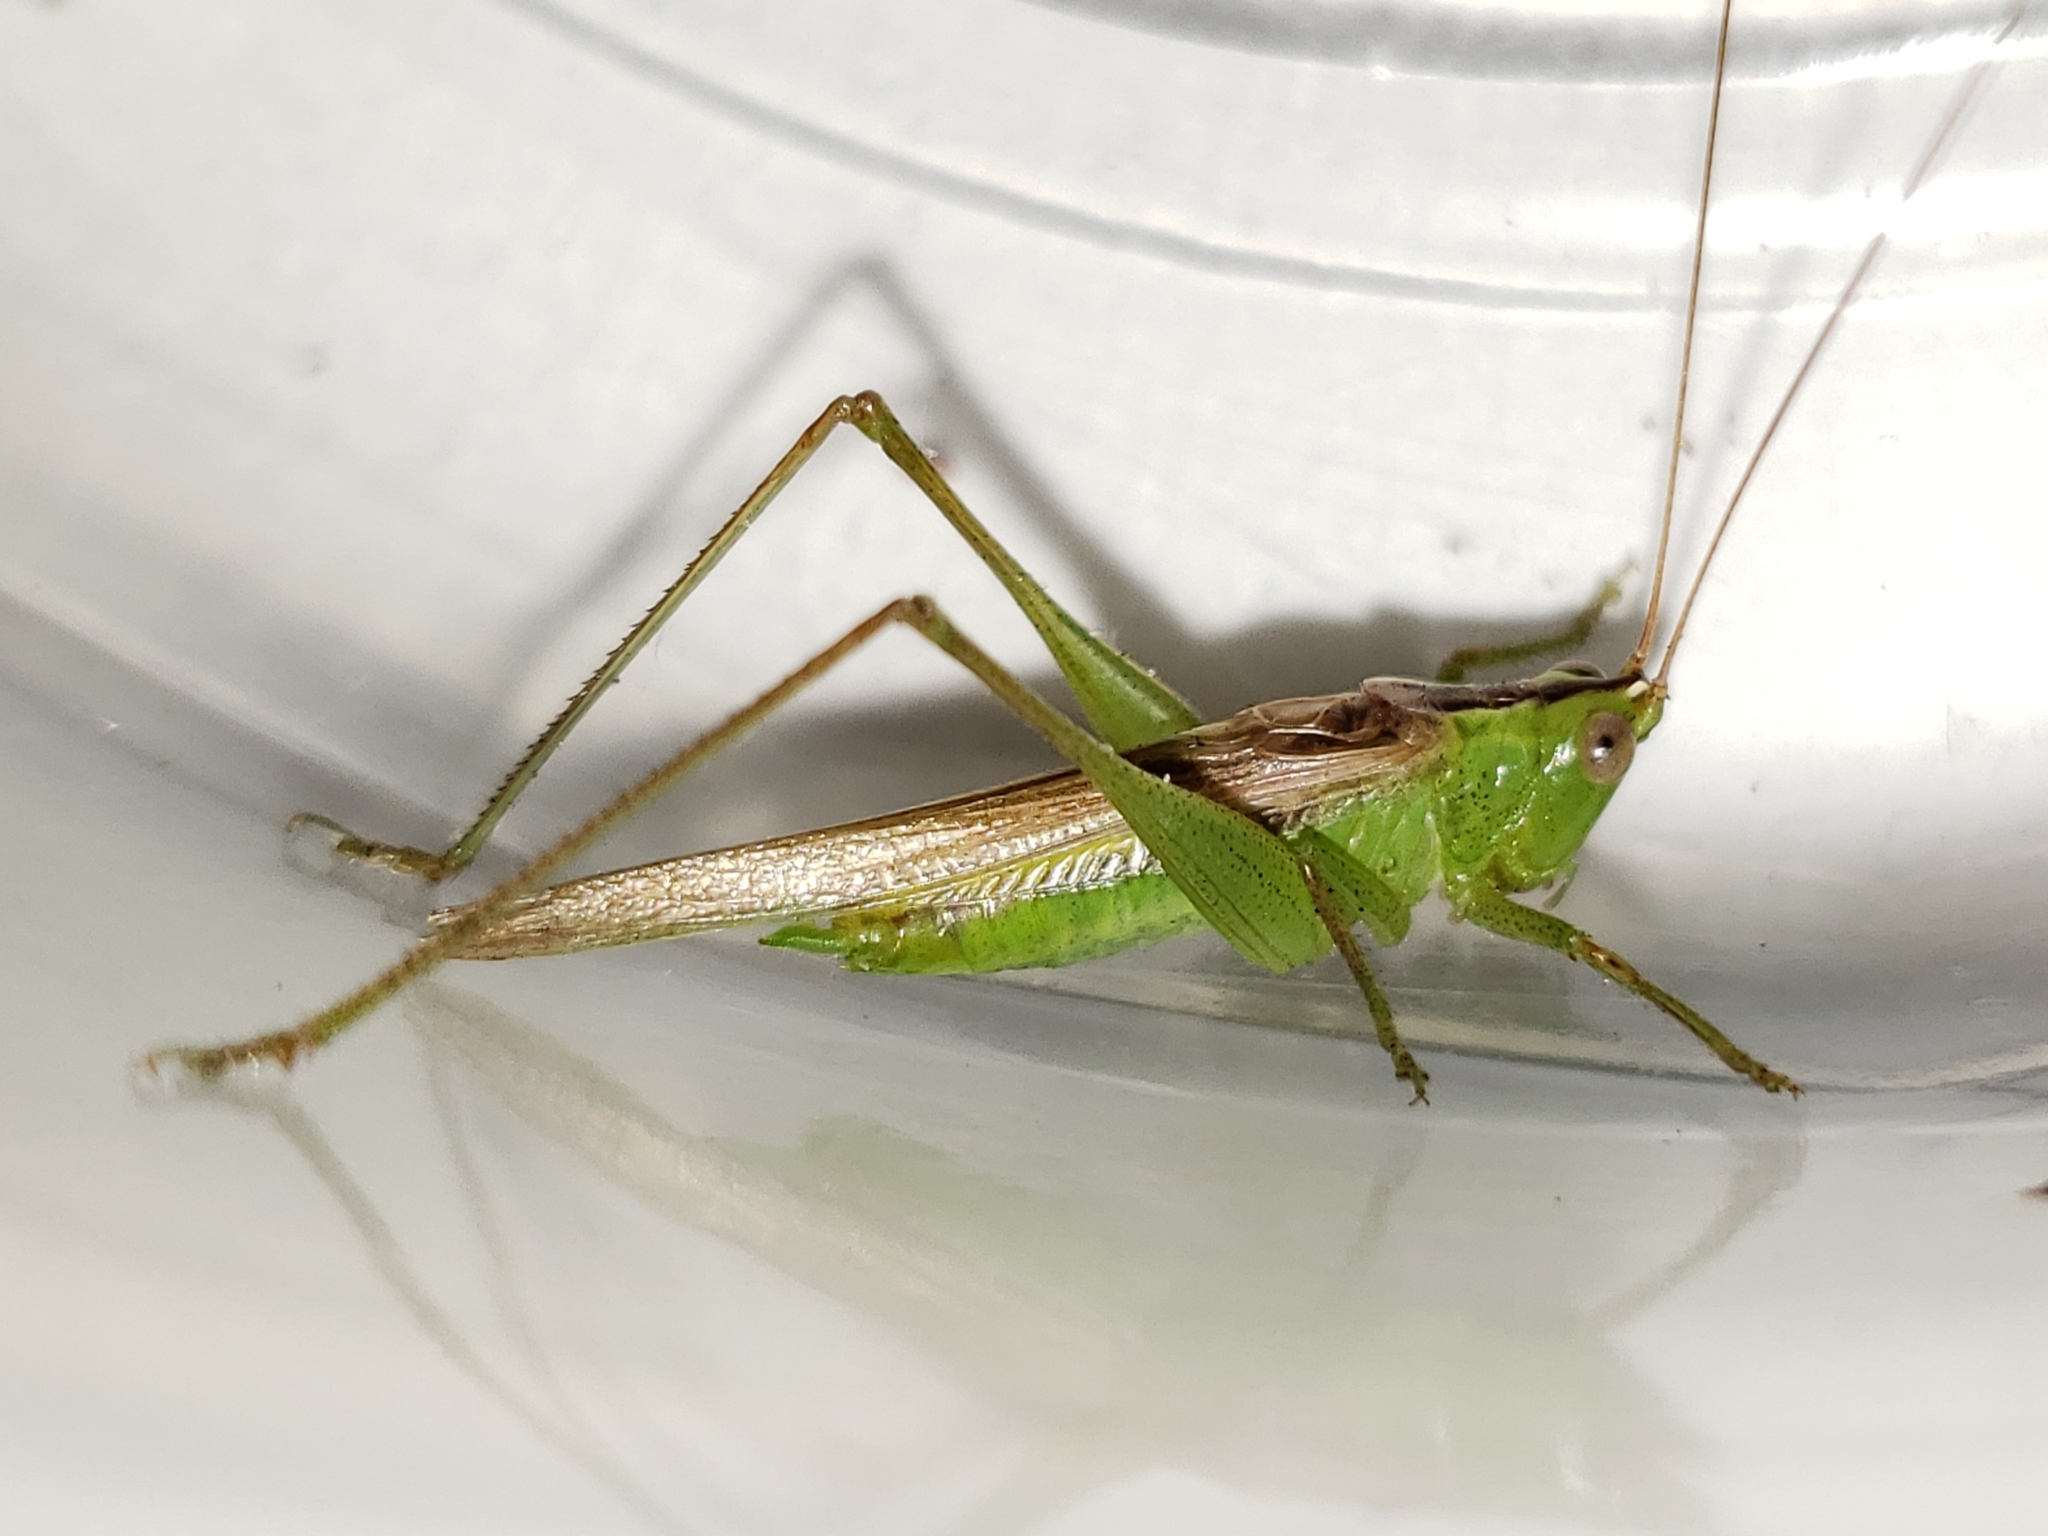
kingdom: Animalia
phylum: Arthropoda
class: Insecta
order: Orthoptera
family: Tettigoniidae
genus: Conocephalus
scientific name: Conocephalus fasciatus
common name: Slender meadow katydid
